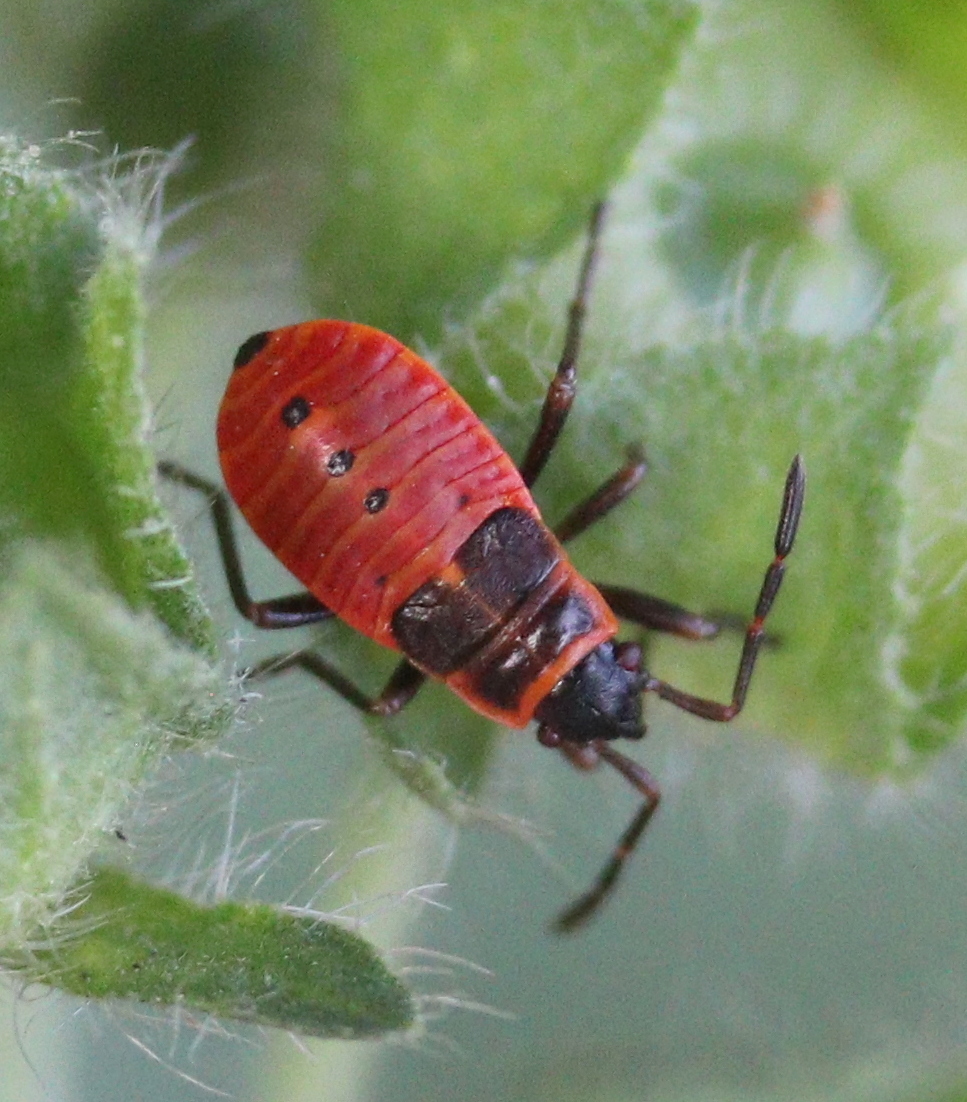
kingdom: Animalia
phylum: Arthropoda
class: Insecta
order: Hemiptera
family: Pyrrhocoridae
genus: Pyrrhocoris
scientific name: Pyrrhocoris apterus
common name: Firebug
